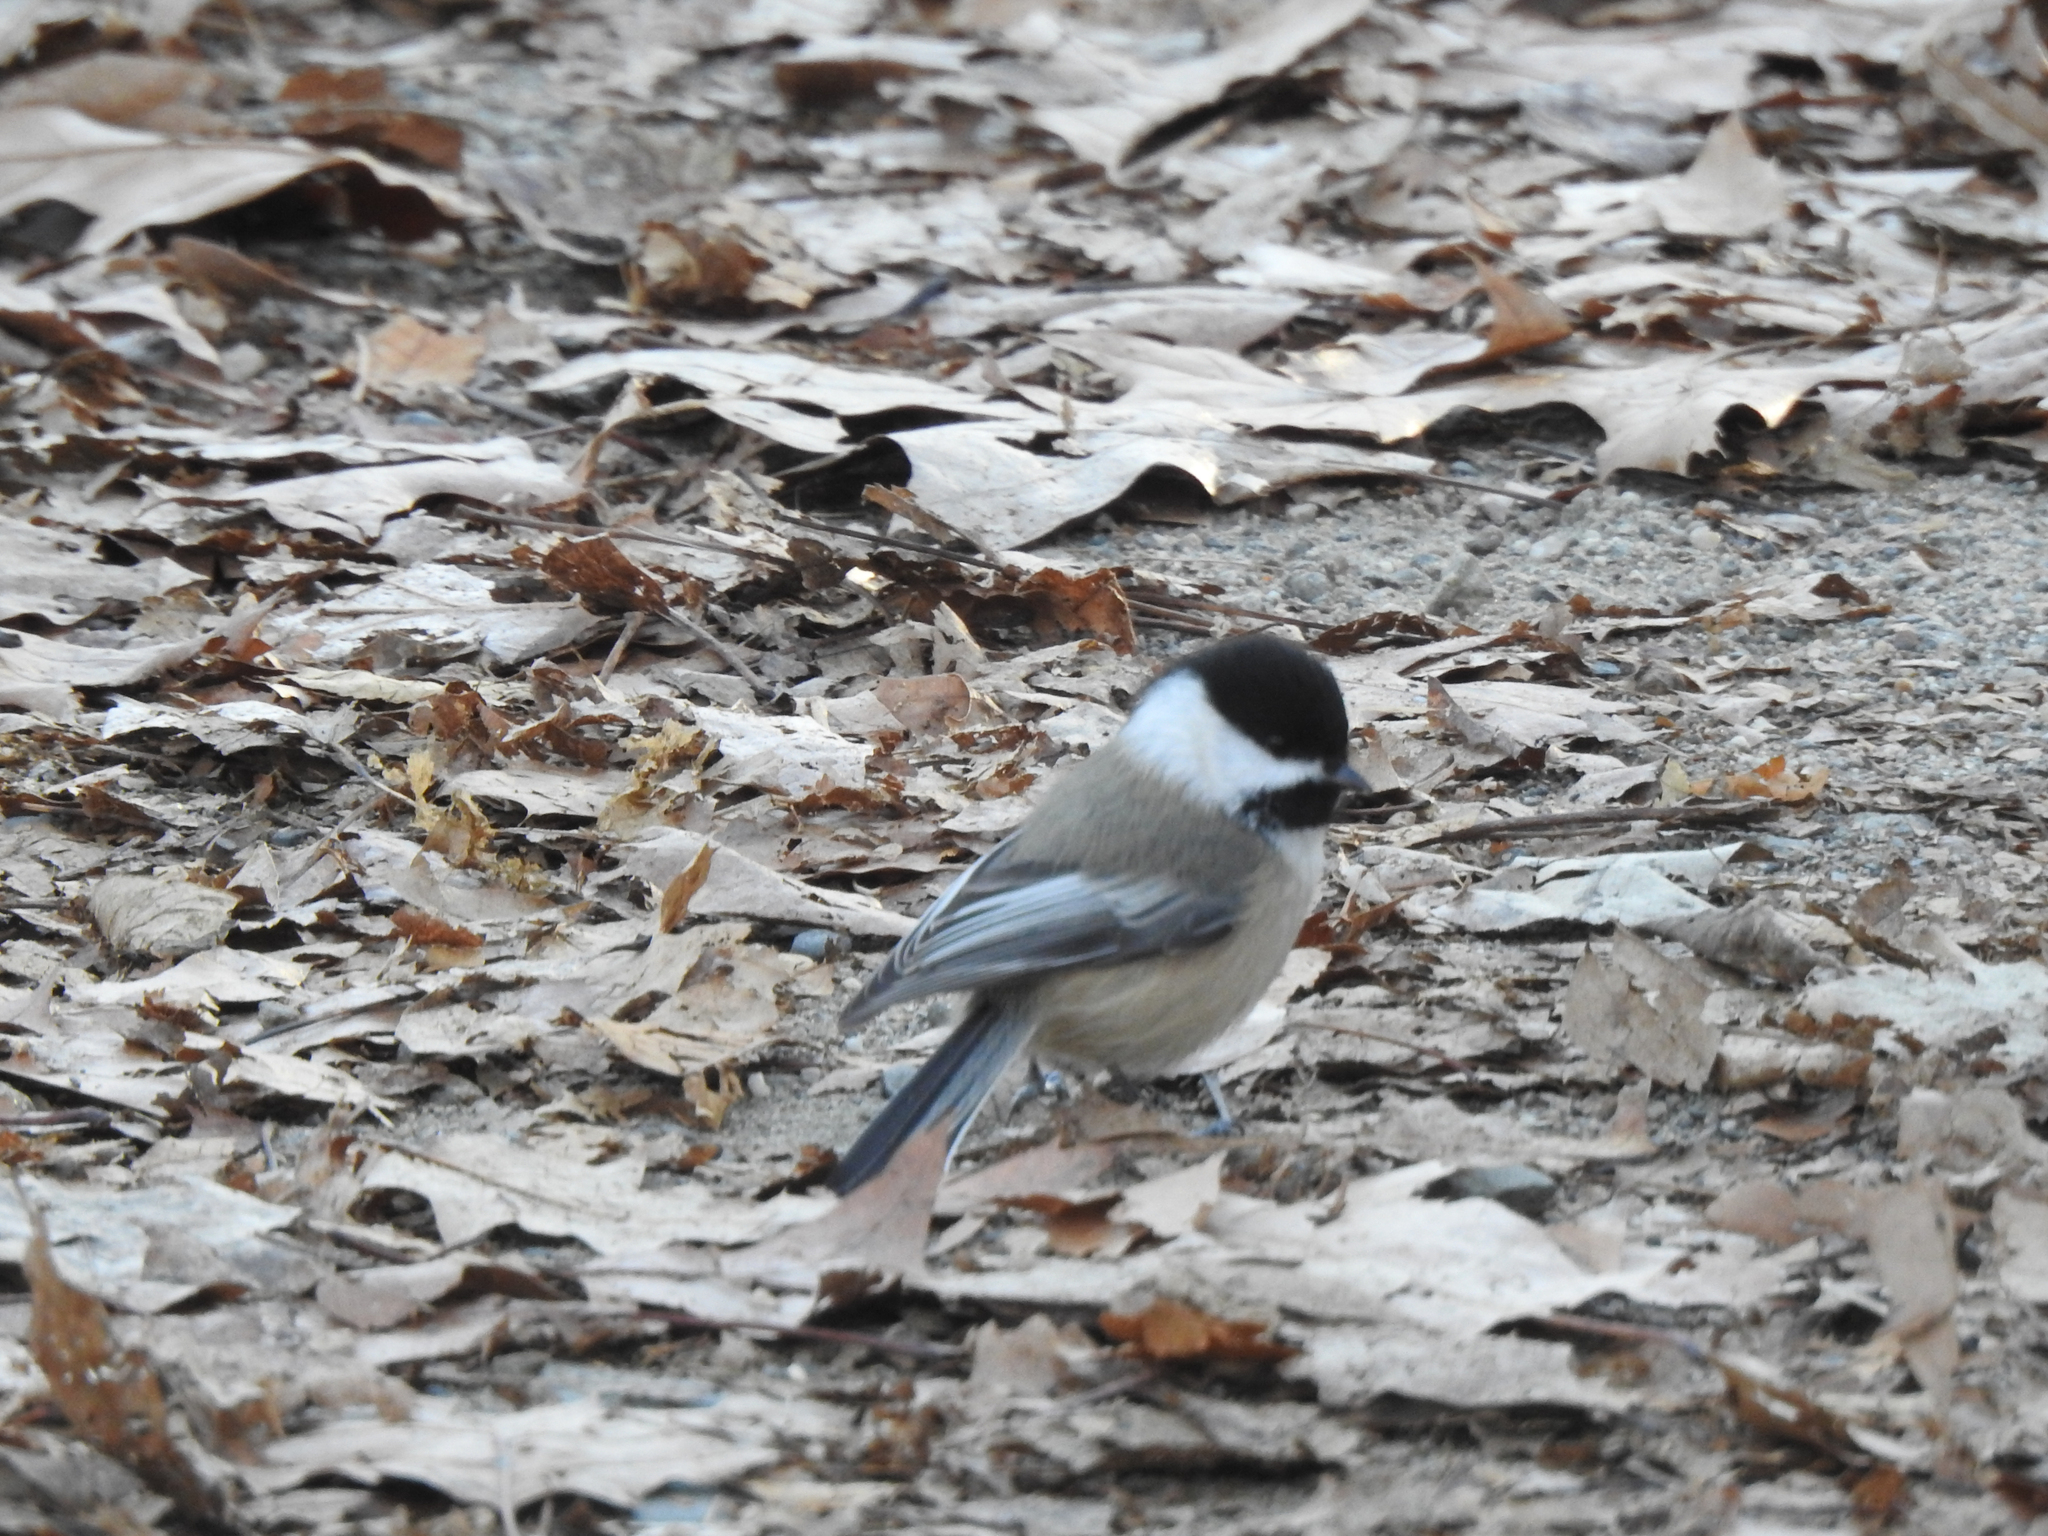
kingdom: Animalia
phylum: Chordata
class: Aves
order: Passeriformes
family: Paridae
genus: Poecile
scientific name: Poecile atricapillus
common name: Black-capped chickadee
